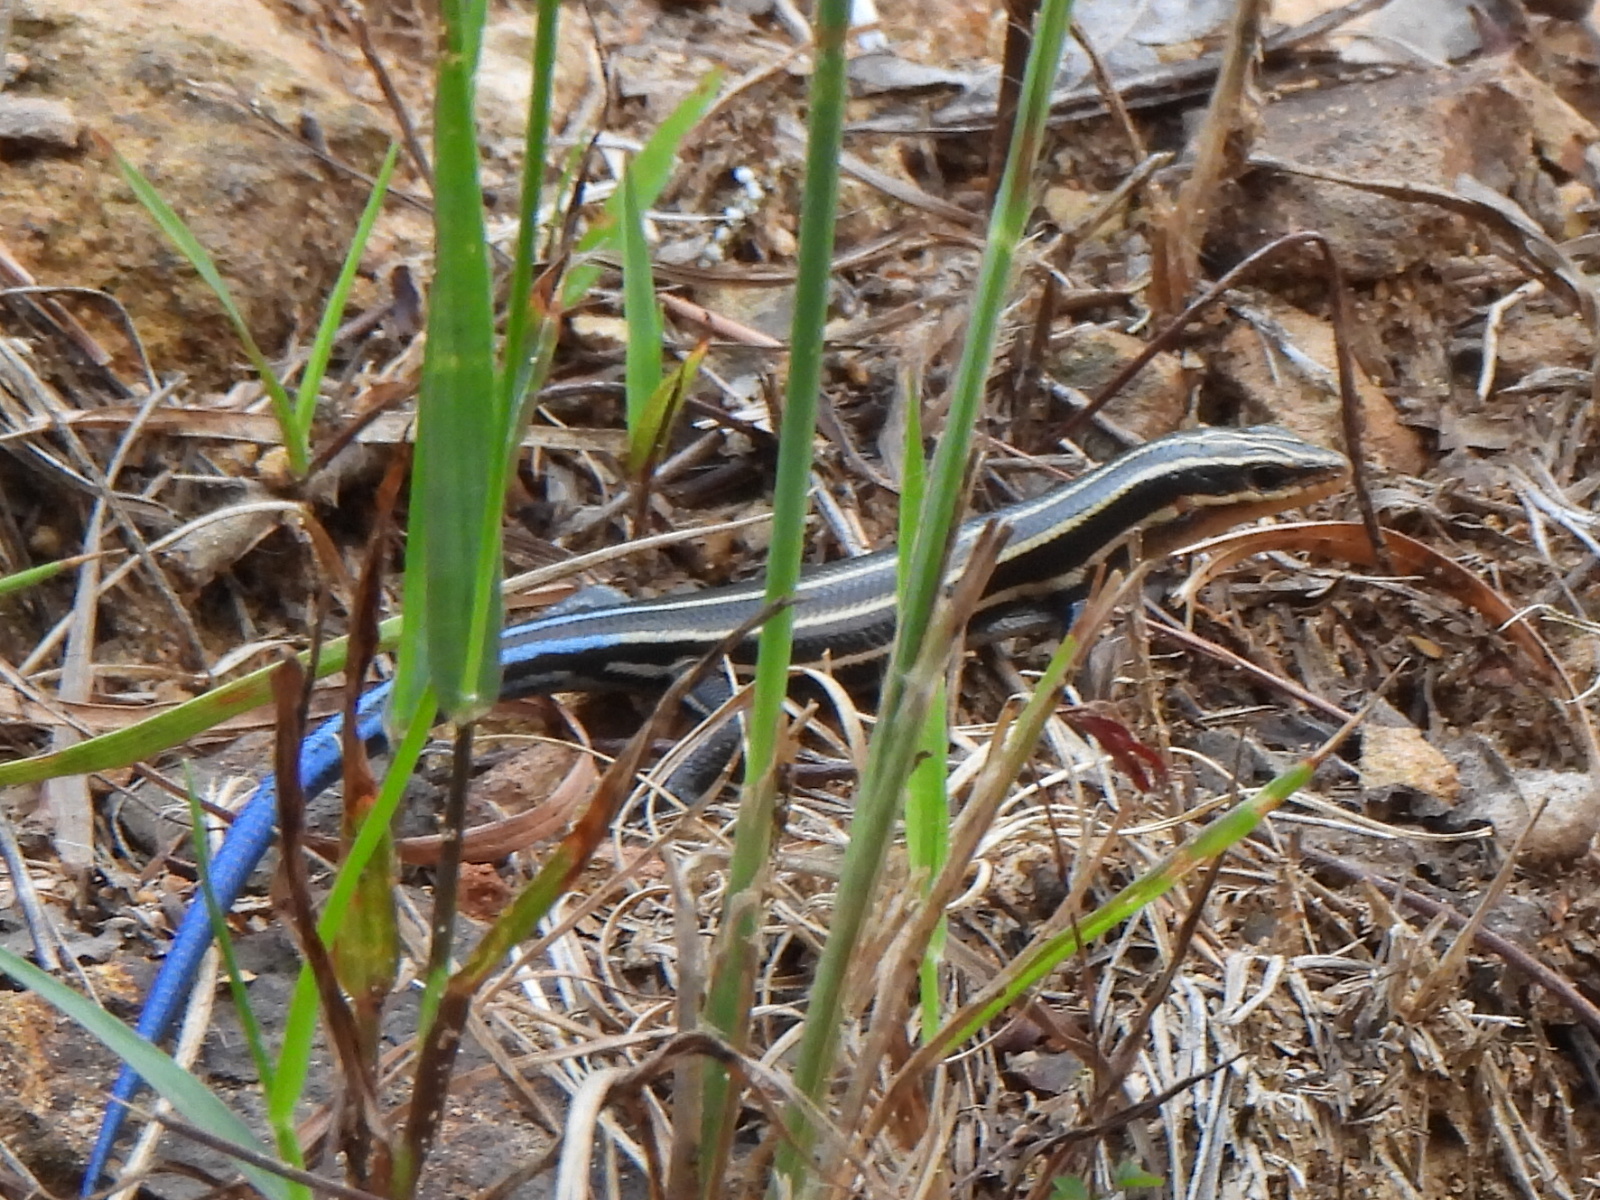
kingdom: Animalia
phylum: Chordata
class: Squamata
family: Scincidae
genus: Plestiodon
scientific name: Plestiodon fasciatus
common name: Five-lined skink
